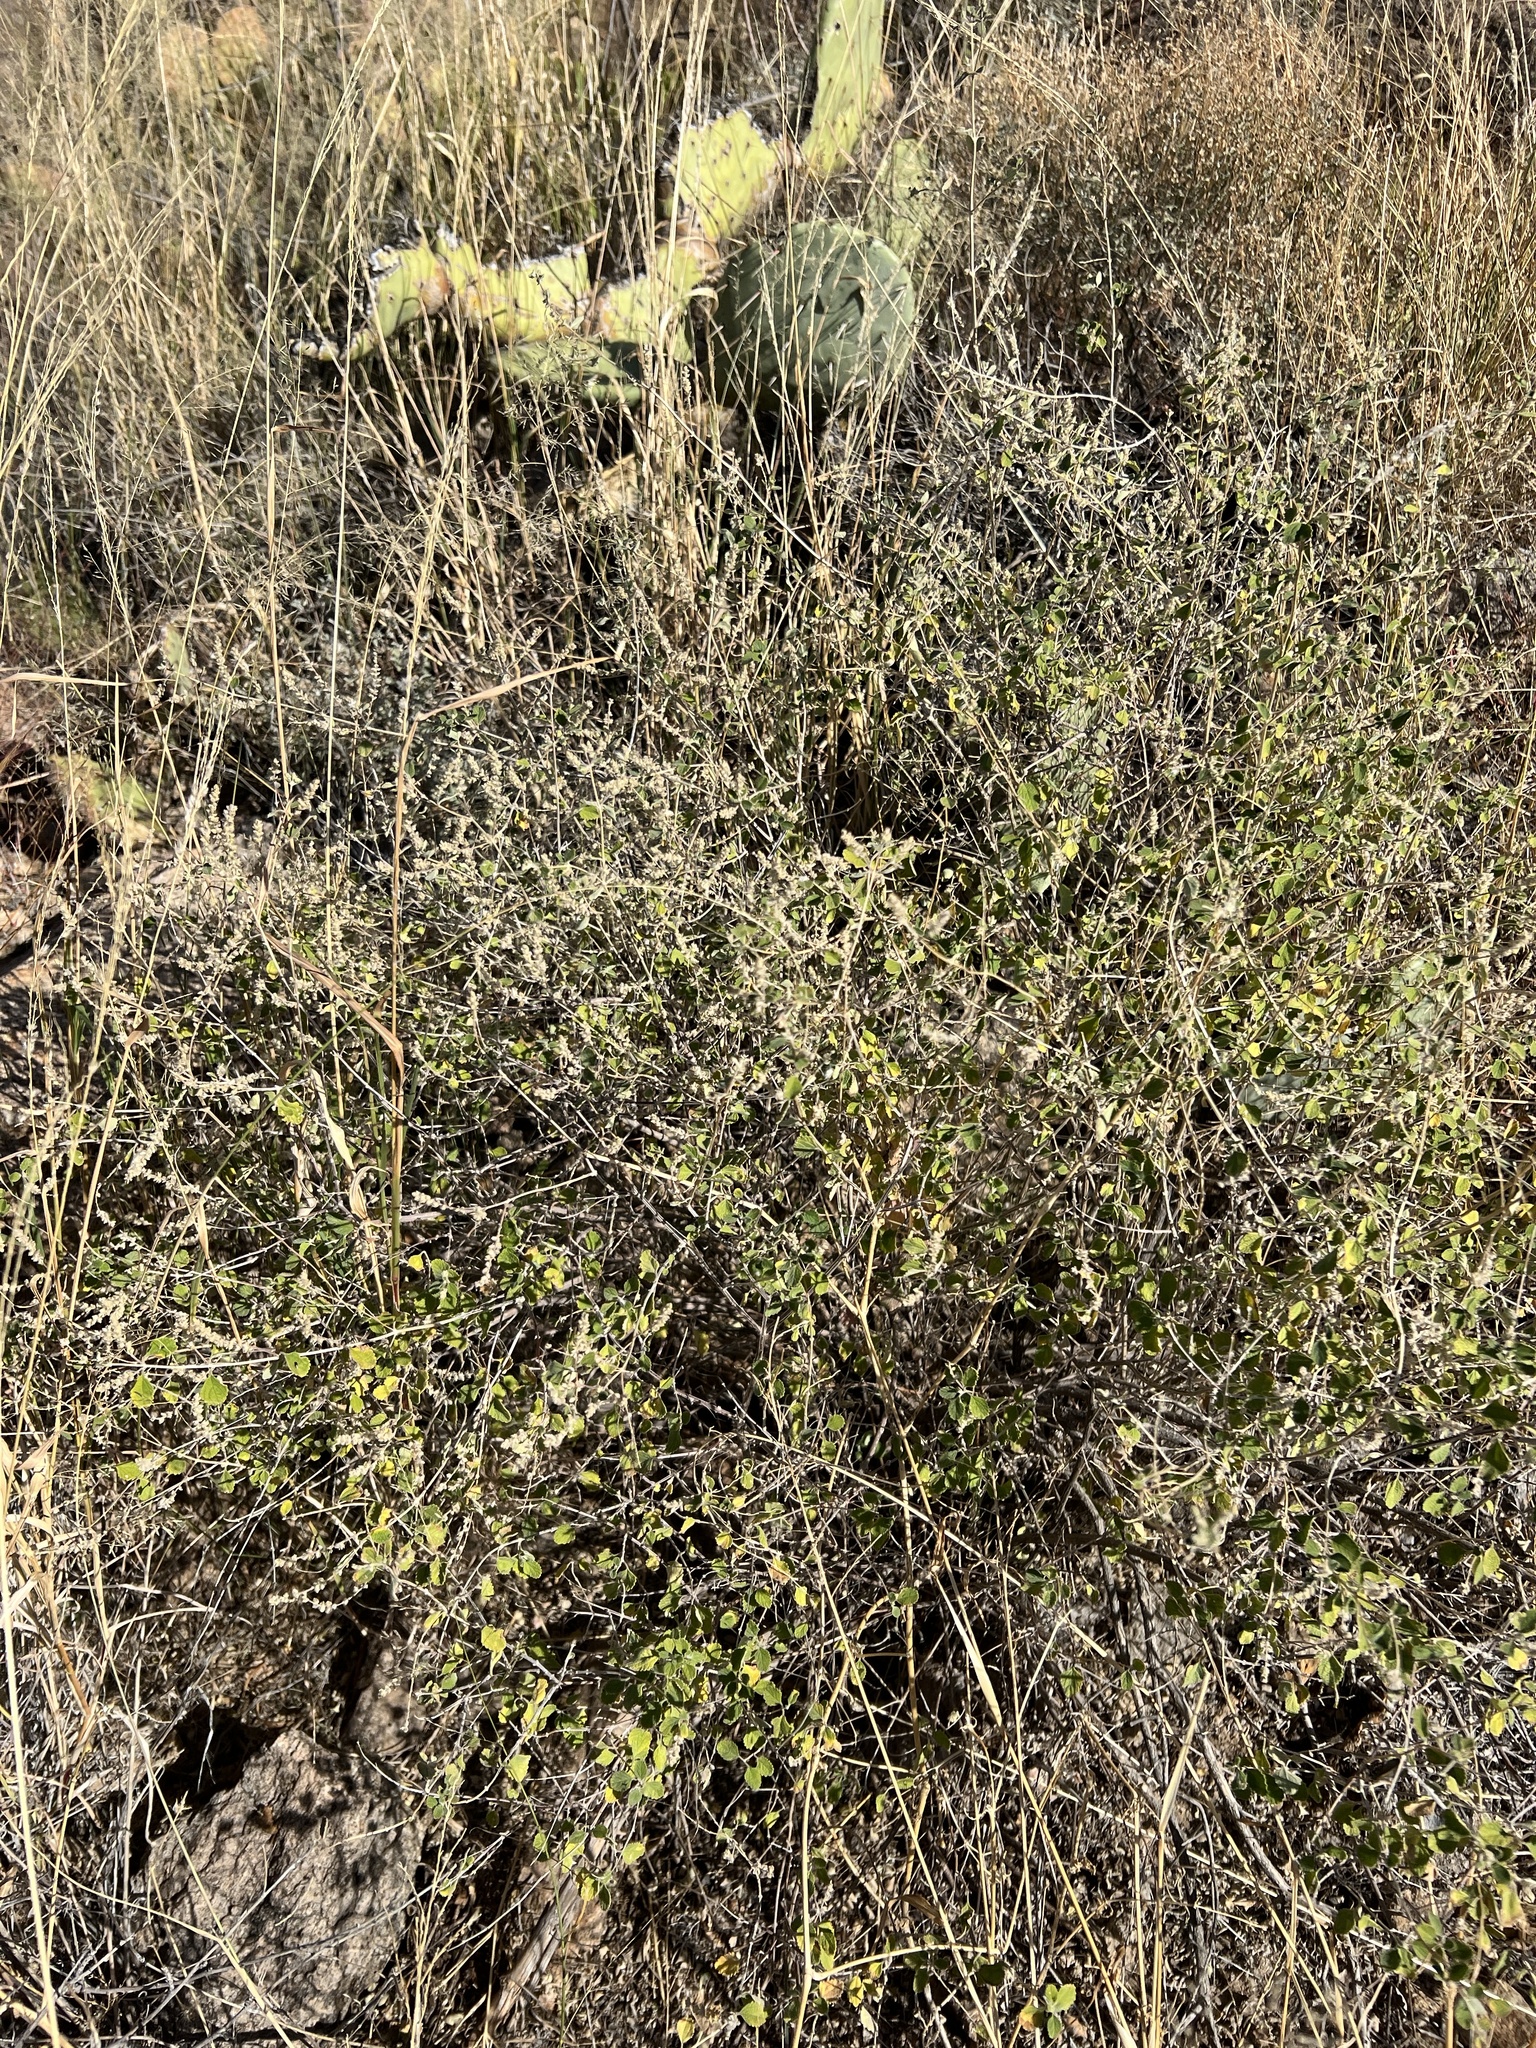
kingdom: Plantae
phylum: Tracheophyta
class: Magnoliopsida
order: Lamiales
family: Verbenaceae
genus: Aloysia
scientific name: Aloysia wrightii
